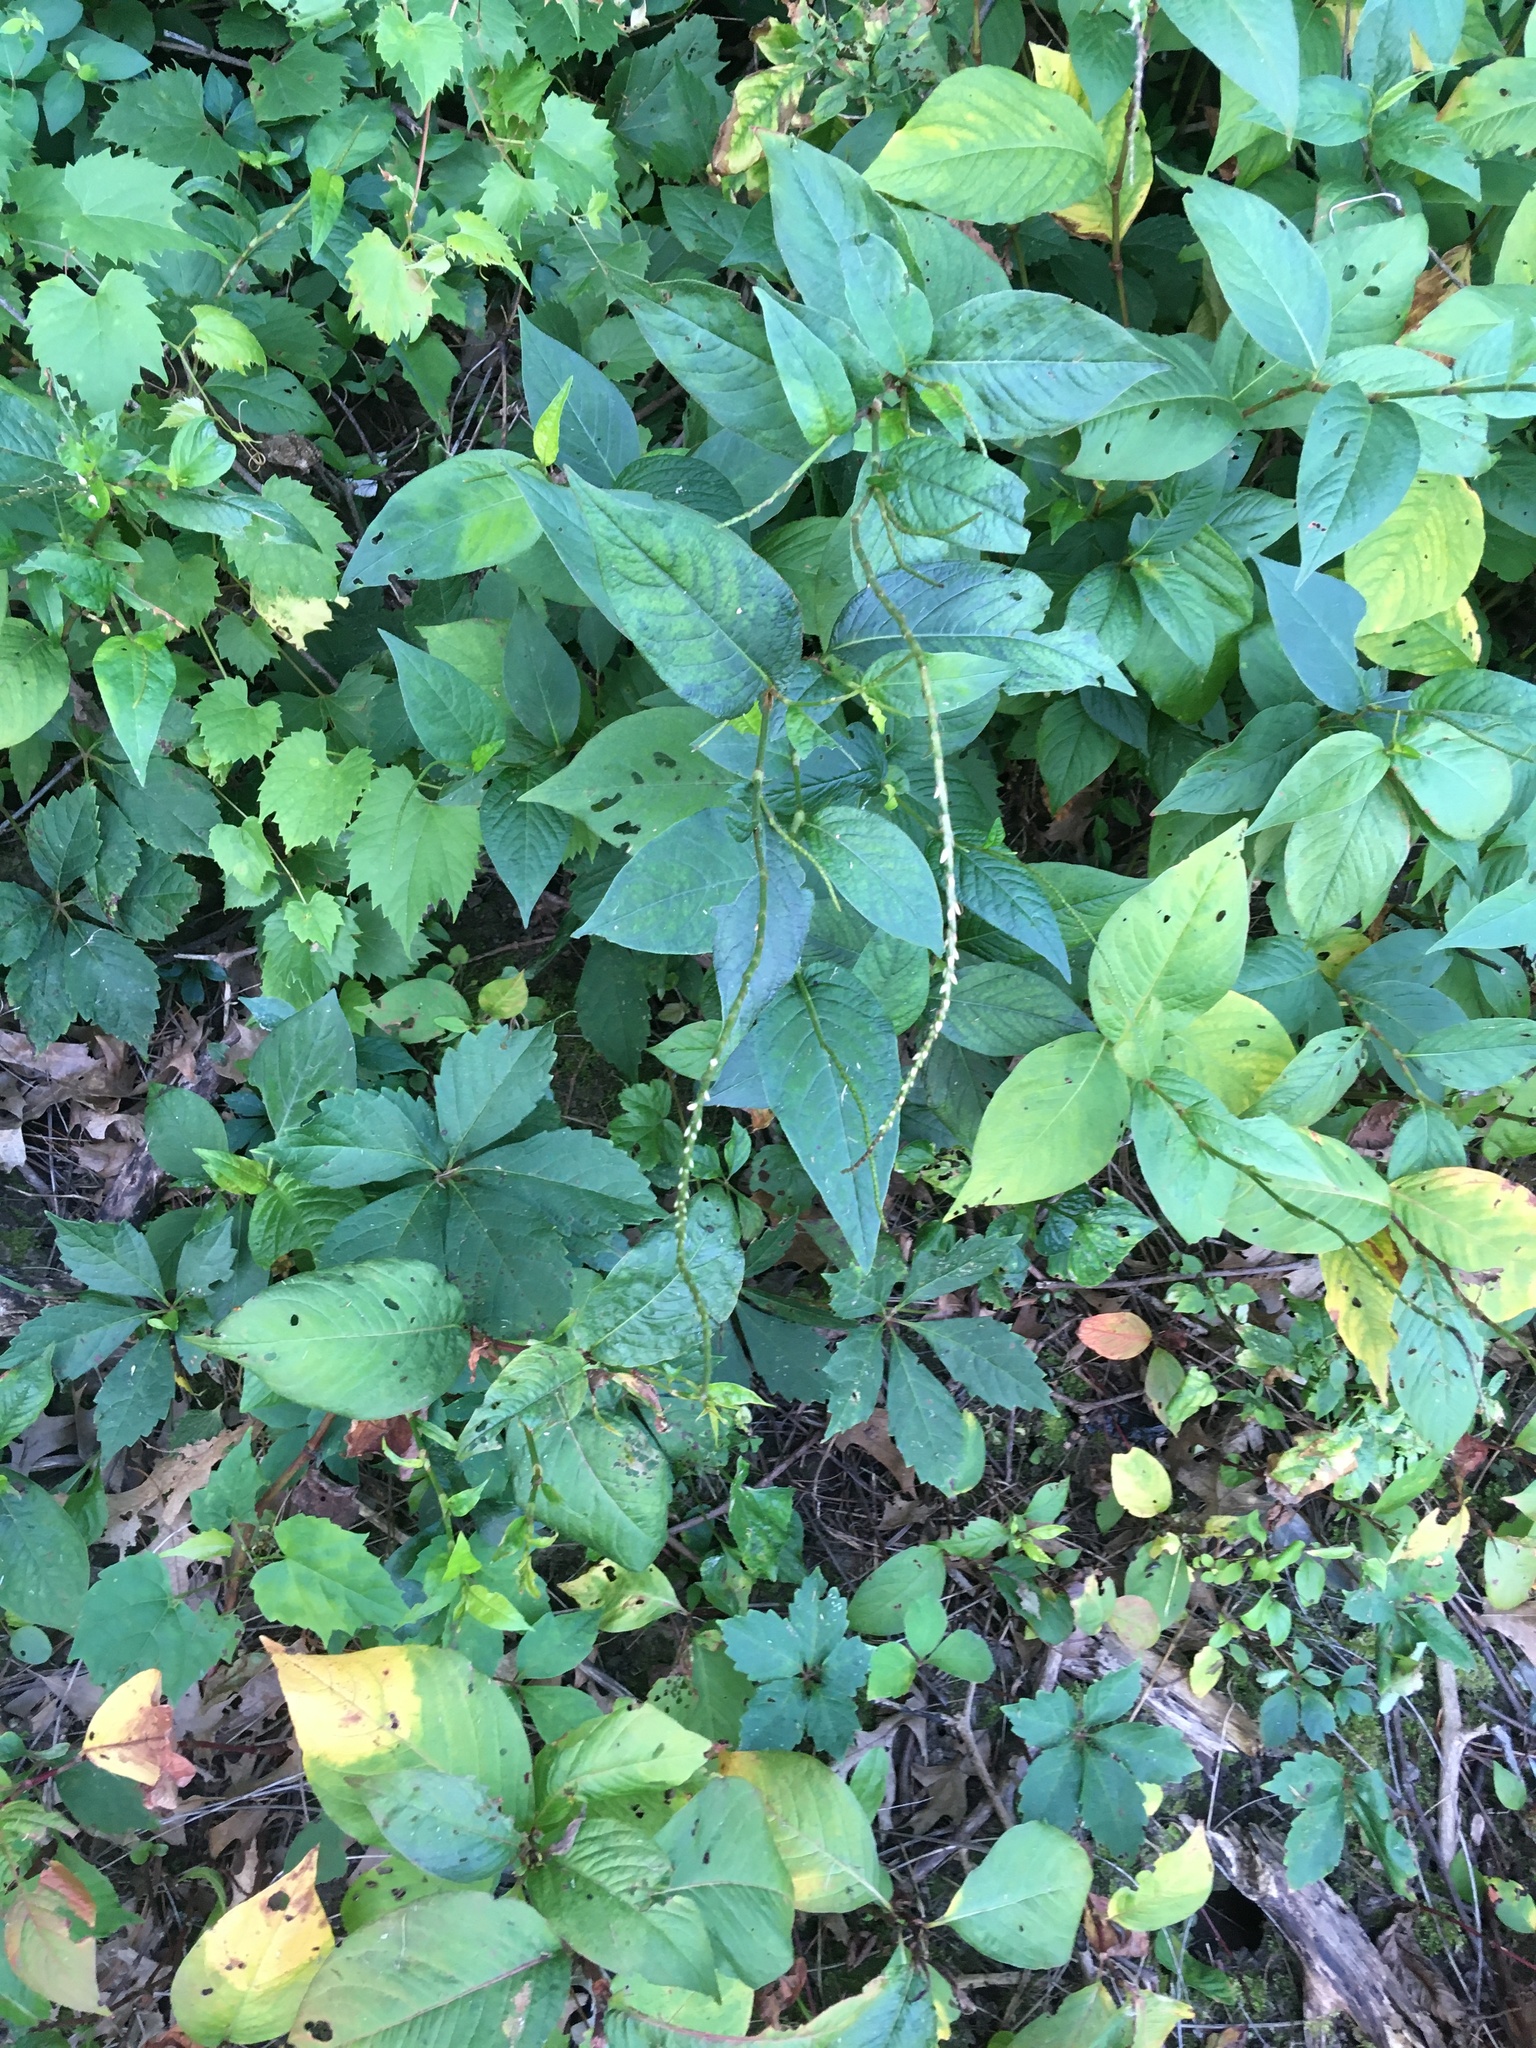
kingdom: Plantae
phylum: Tracheophyta
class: Magnoliopsida
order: Caryophyllales
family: Polygonaceae
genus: Persicaria
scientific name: Persicaria virginiana
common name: Jumpseed
